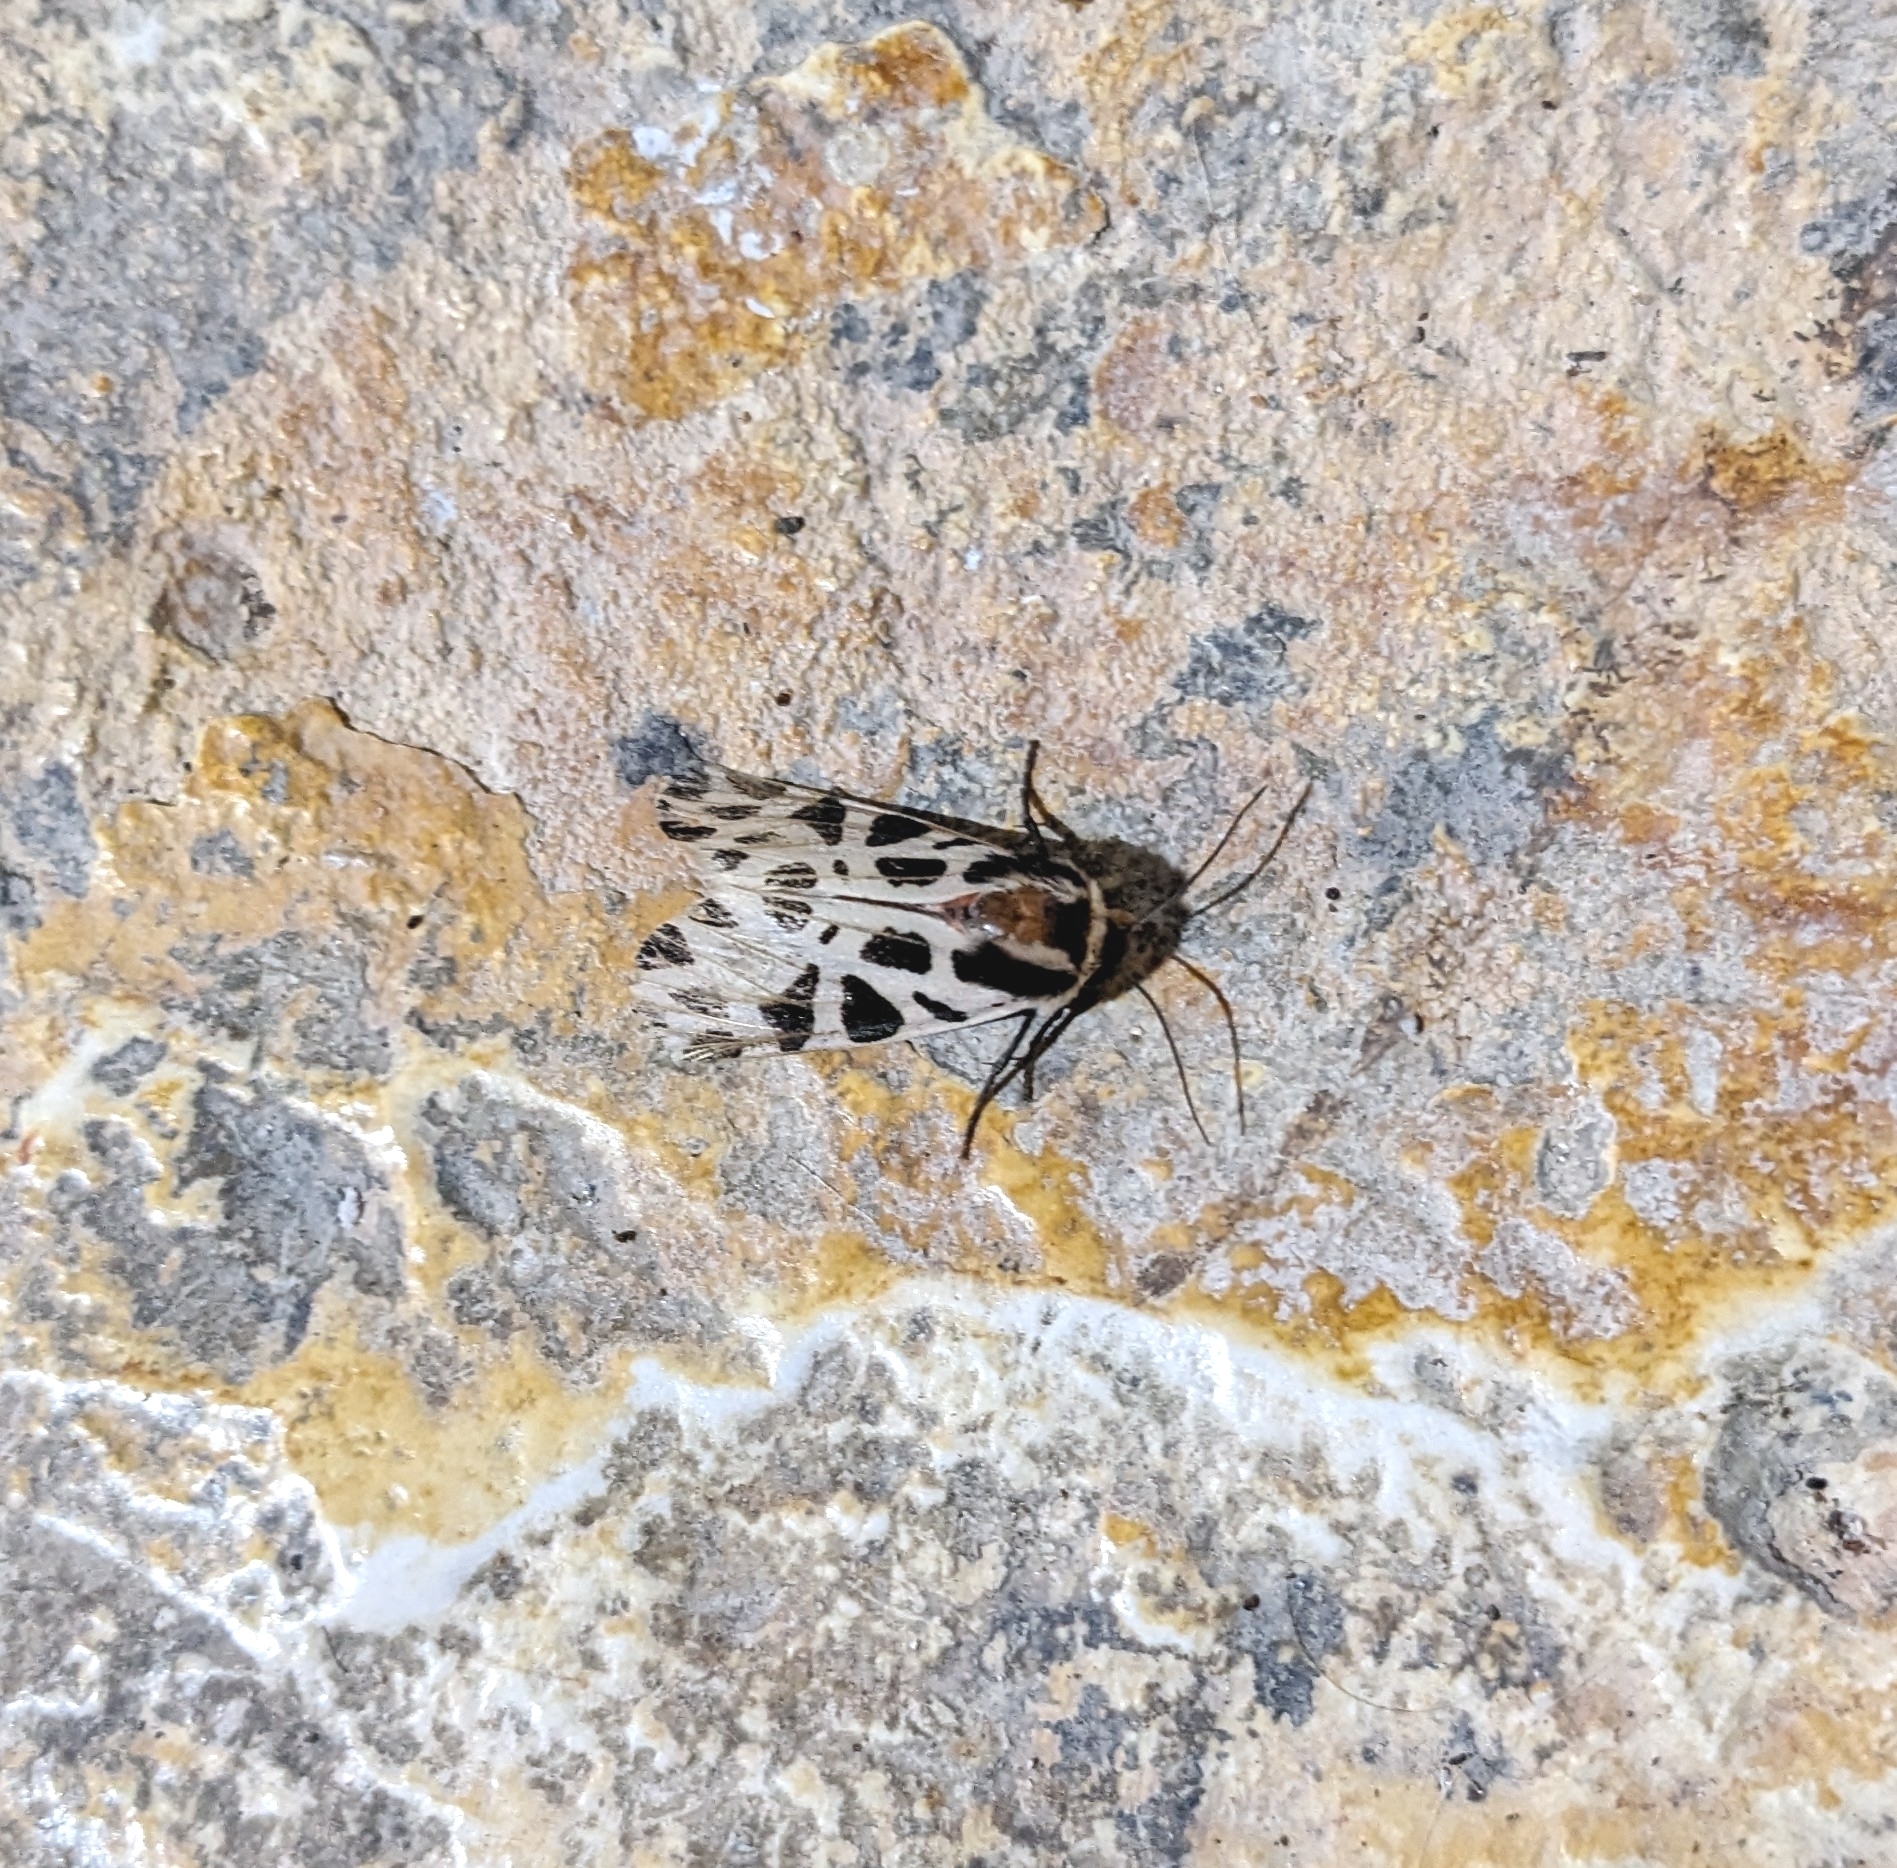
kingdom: Animalia
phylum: Arthropoda
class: Insecta
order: Lepidoptera
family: Erebidae
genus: Cymbalophora
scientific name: Cymbalophora pudica
